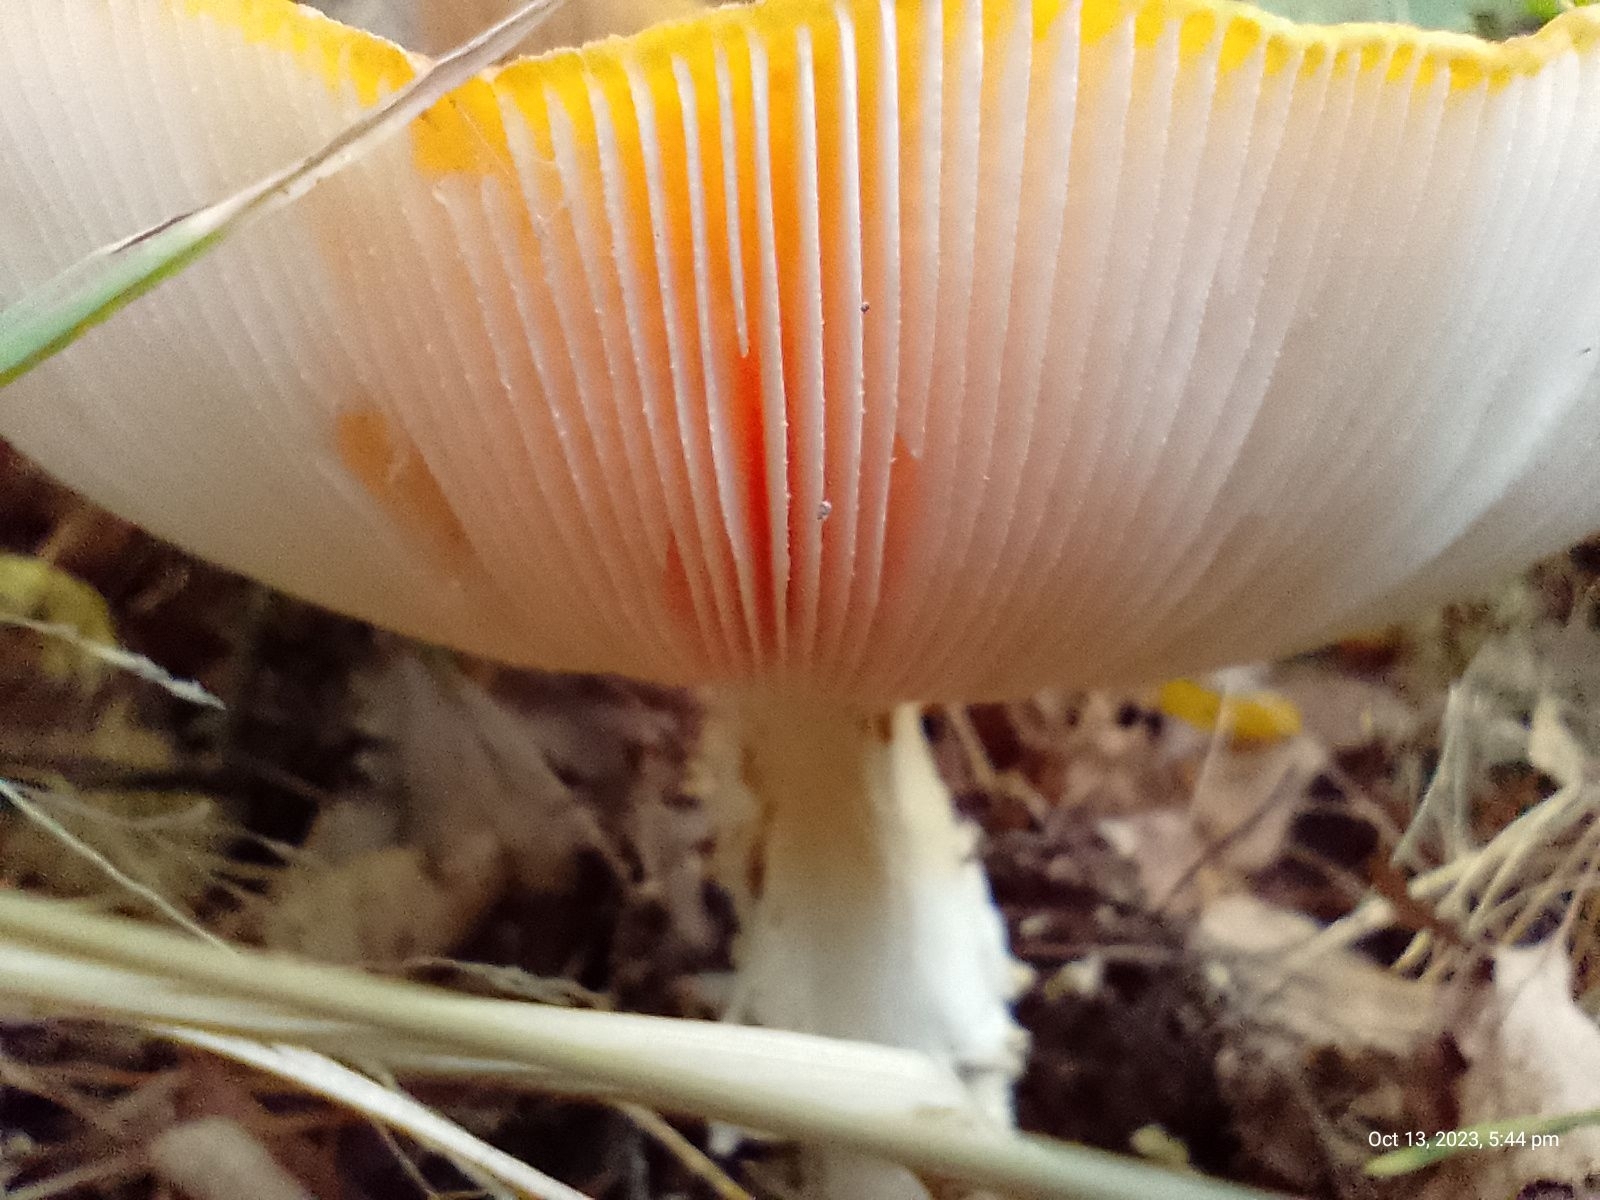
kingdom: Fungi
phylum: Basidiomycota
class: Agaricomycetes
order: Agaricales
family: Amanitaceae
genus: Amanita
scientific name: Amanita muscaria
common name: Fly agaric
